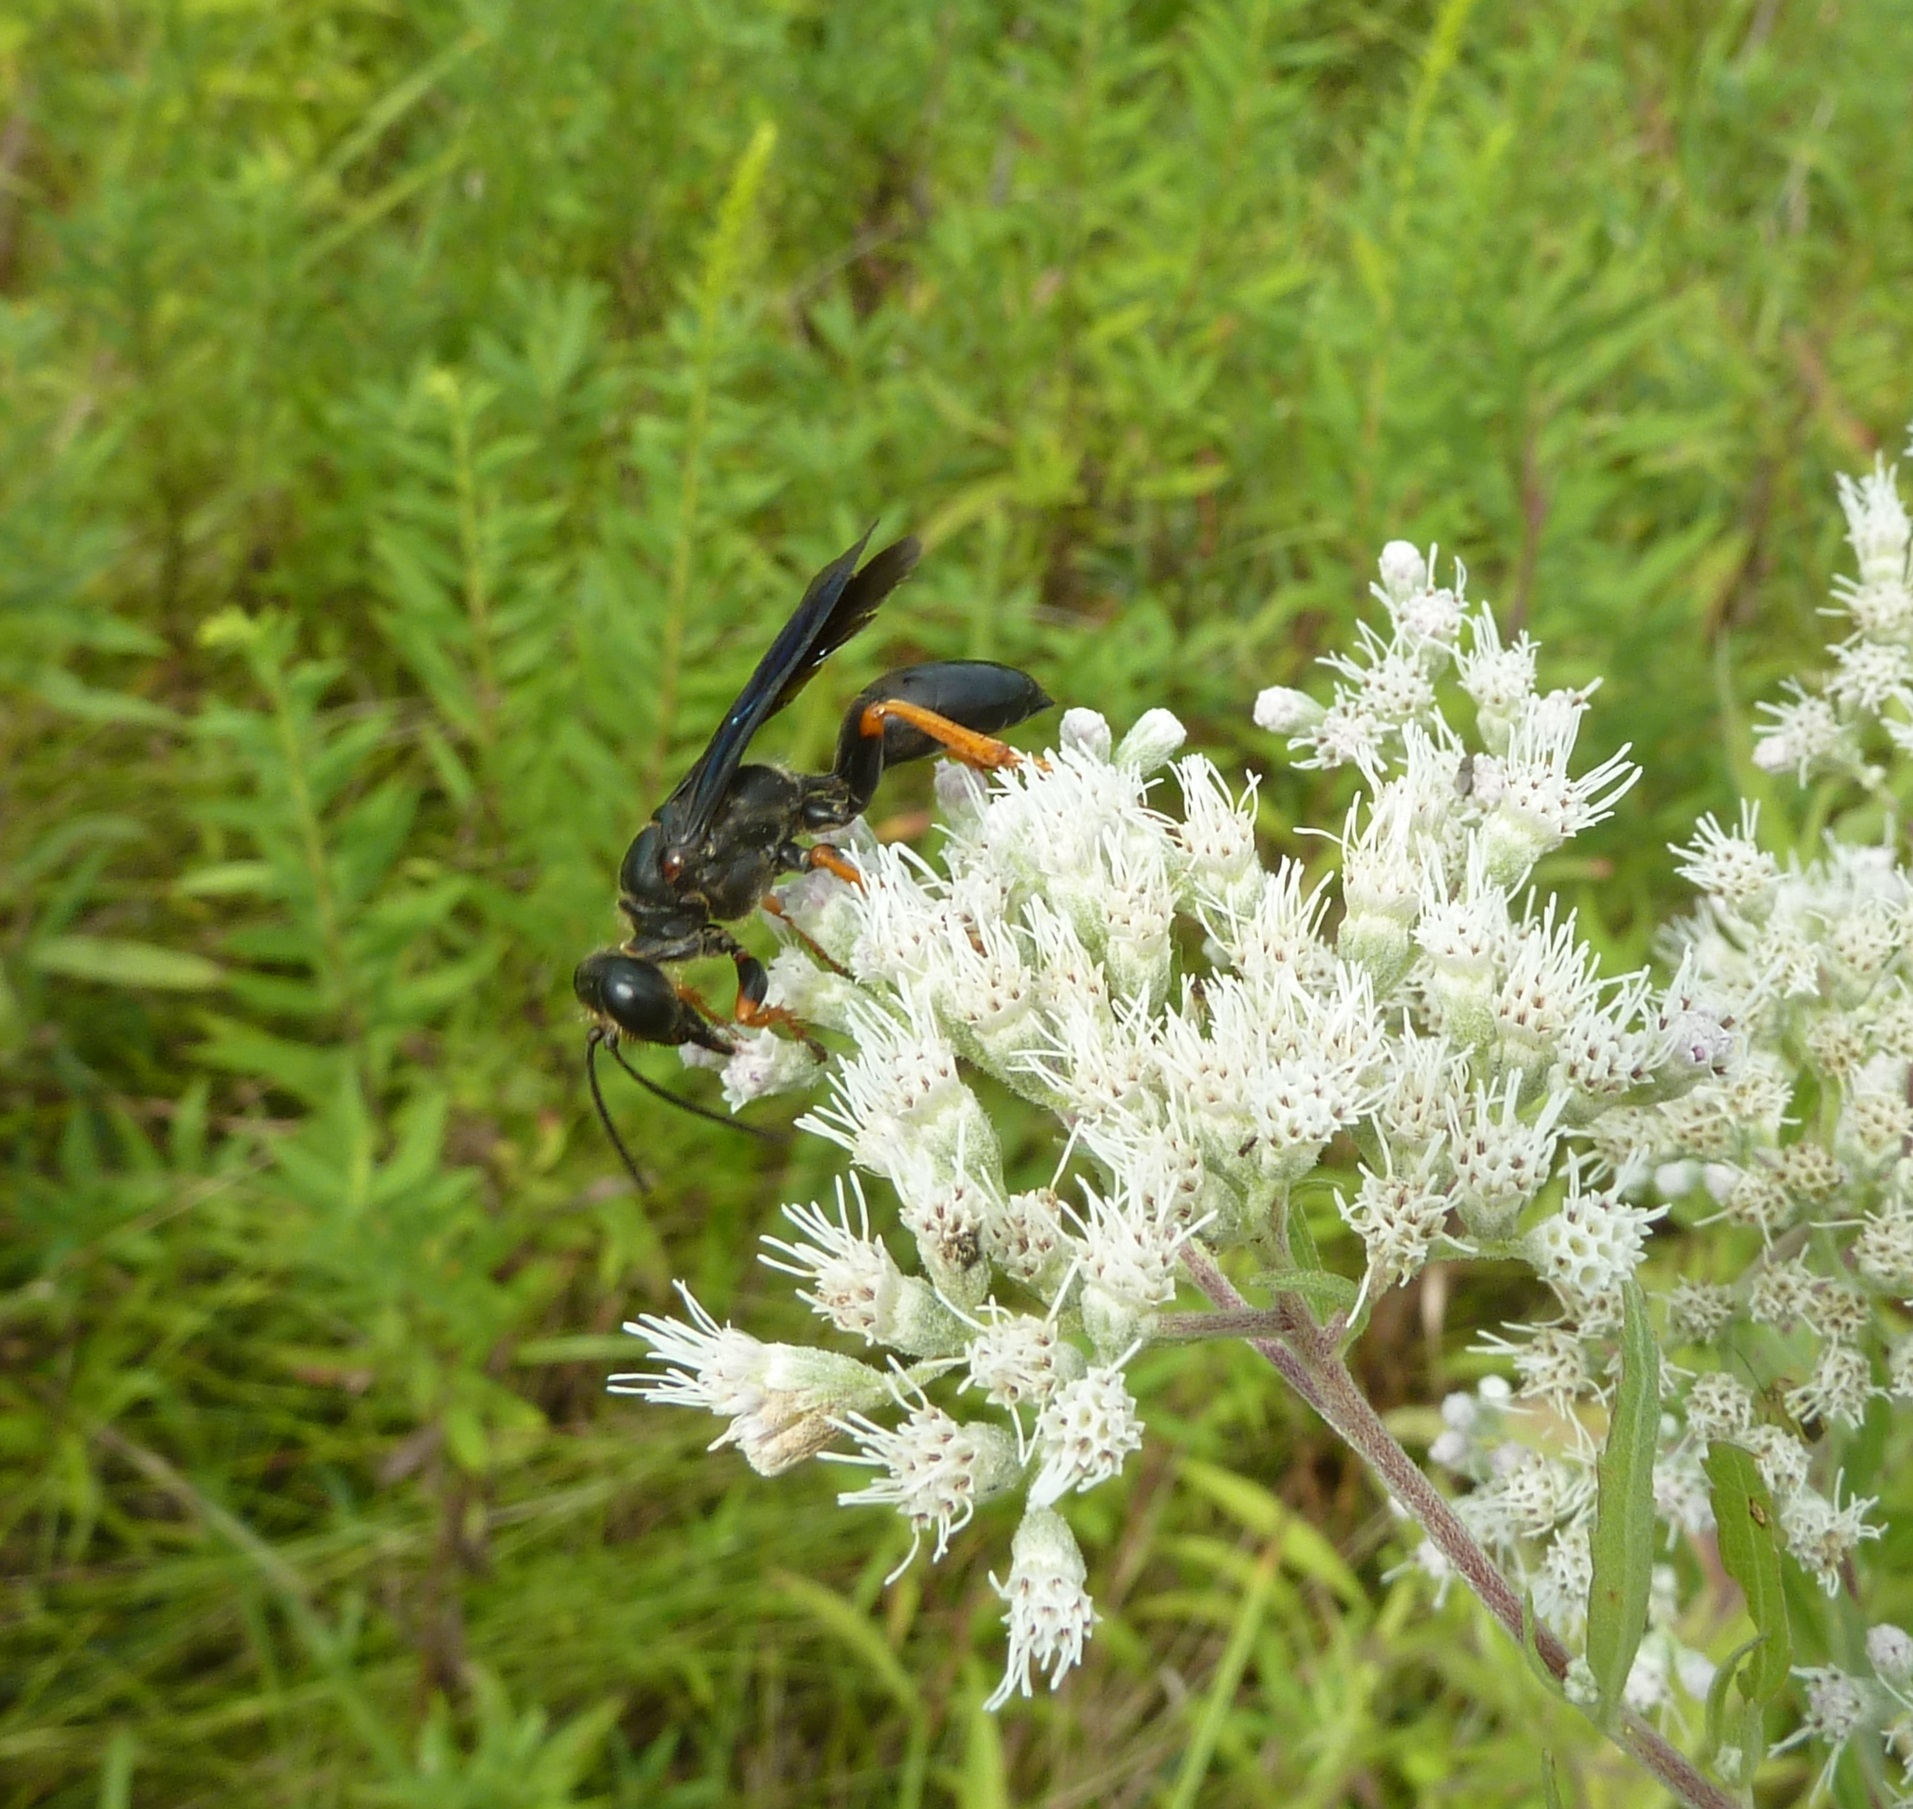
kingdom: Animalia
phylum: Arthropoda
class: Insecta
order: Hymenoptera
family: Sphecidae
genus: Sphex
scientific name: Sphex nudus
